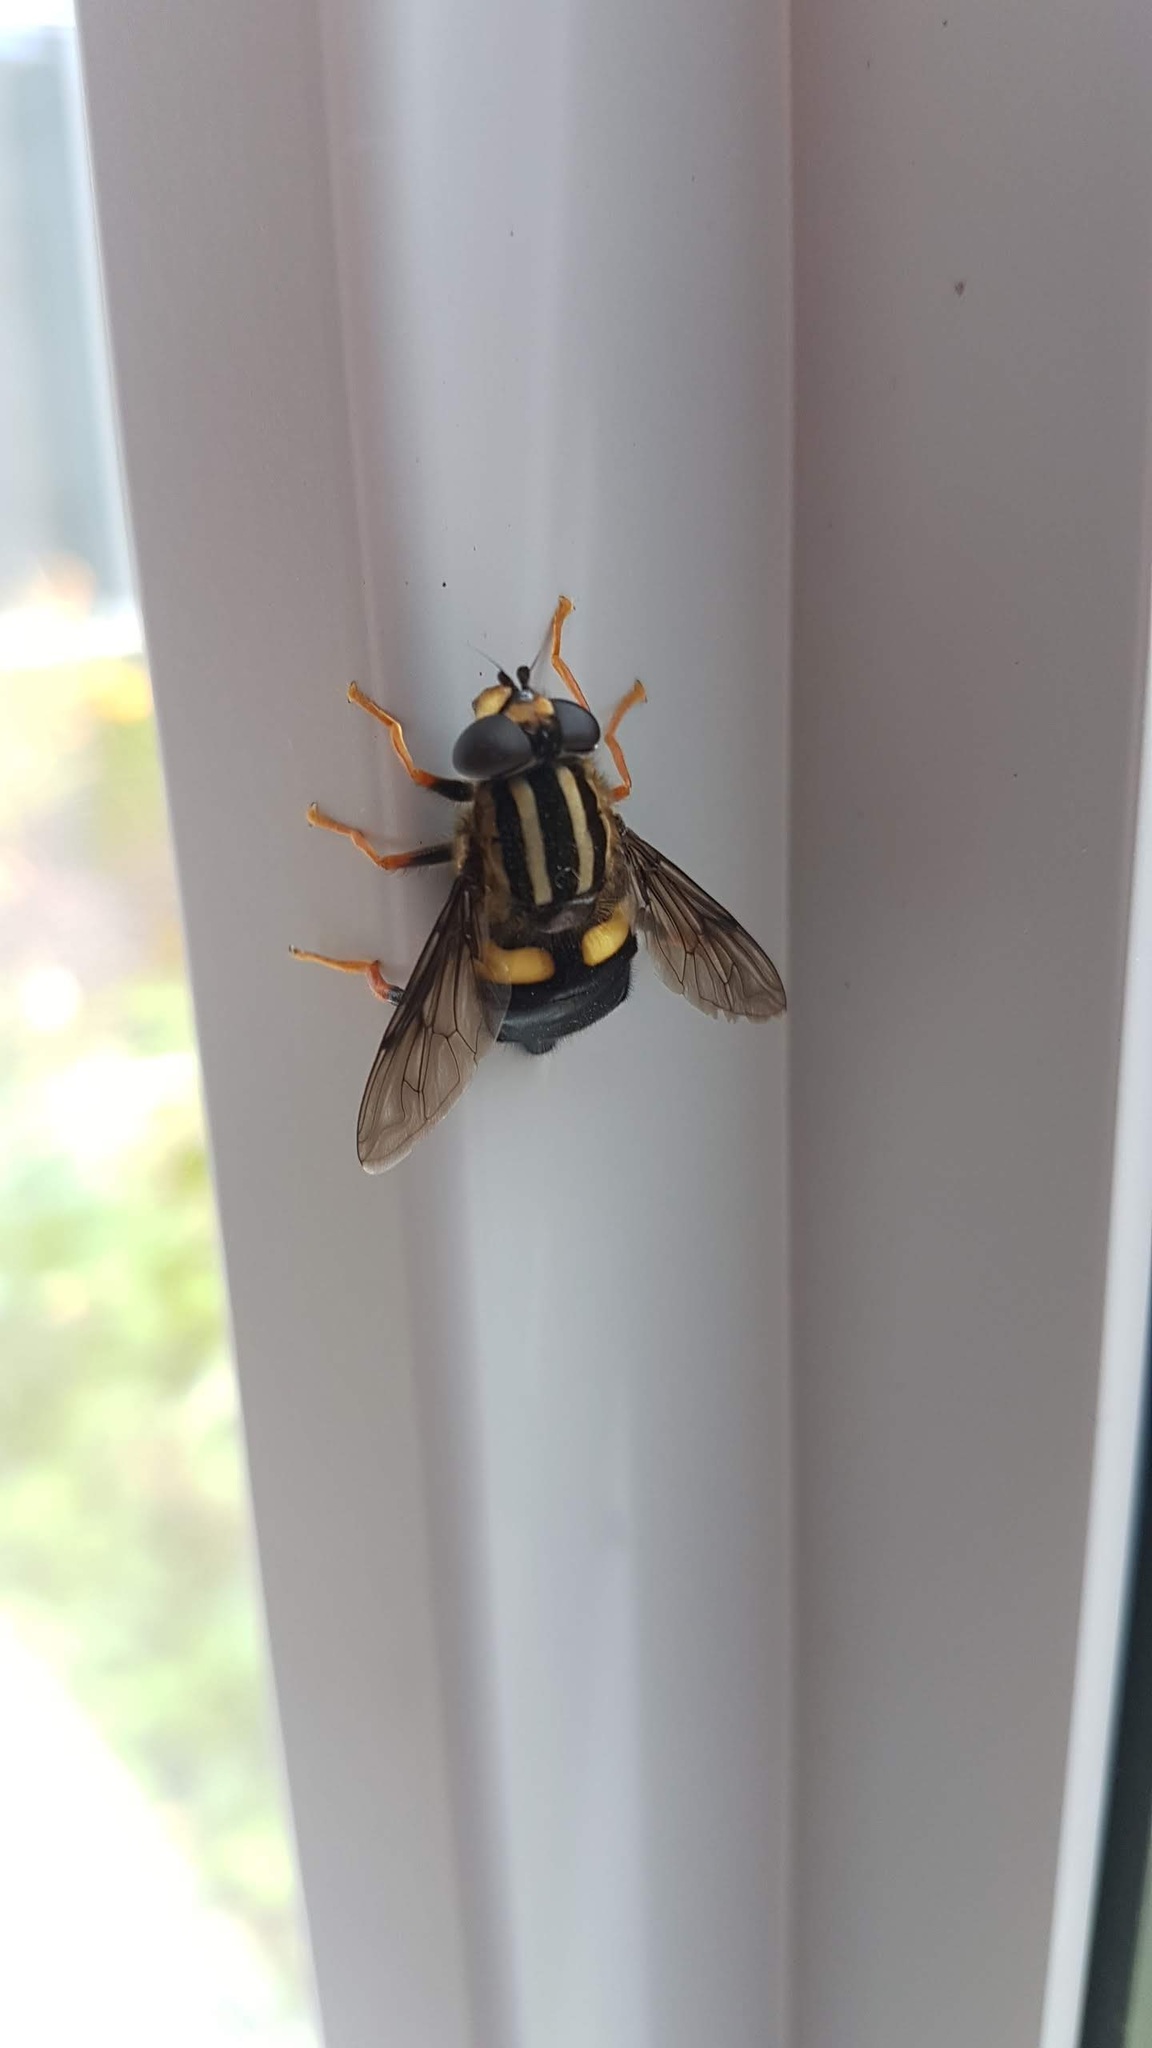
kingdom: Animalia
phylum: Arthropoda
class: Insecta
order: Diptera
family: Syrphidae
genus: Helophilus
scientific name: Helophilus seelandicus
